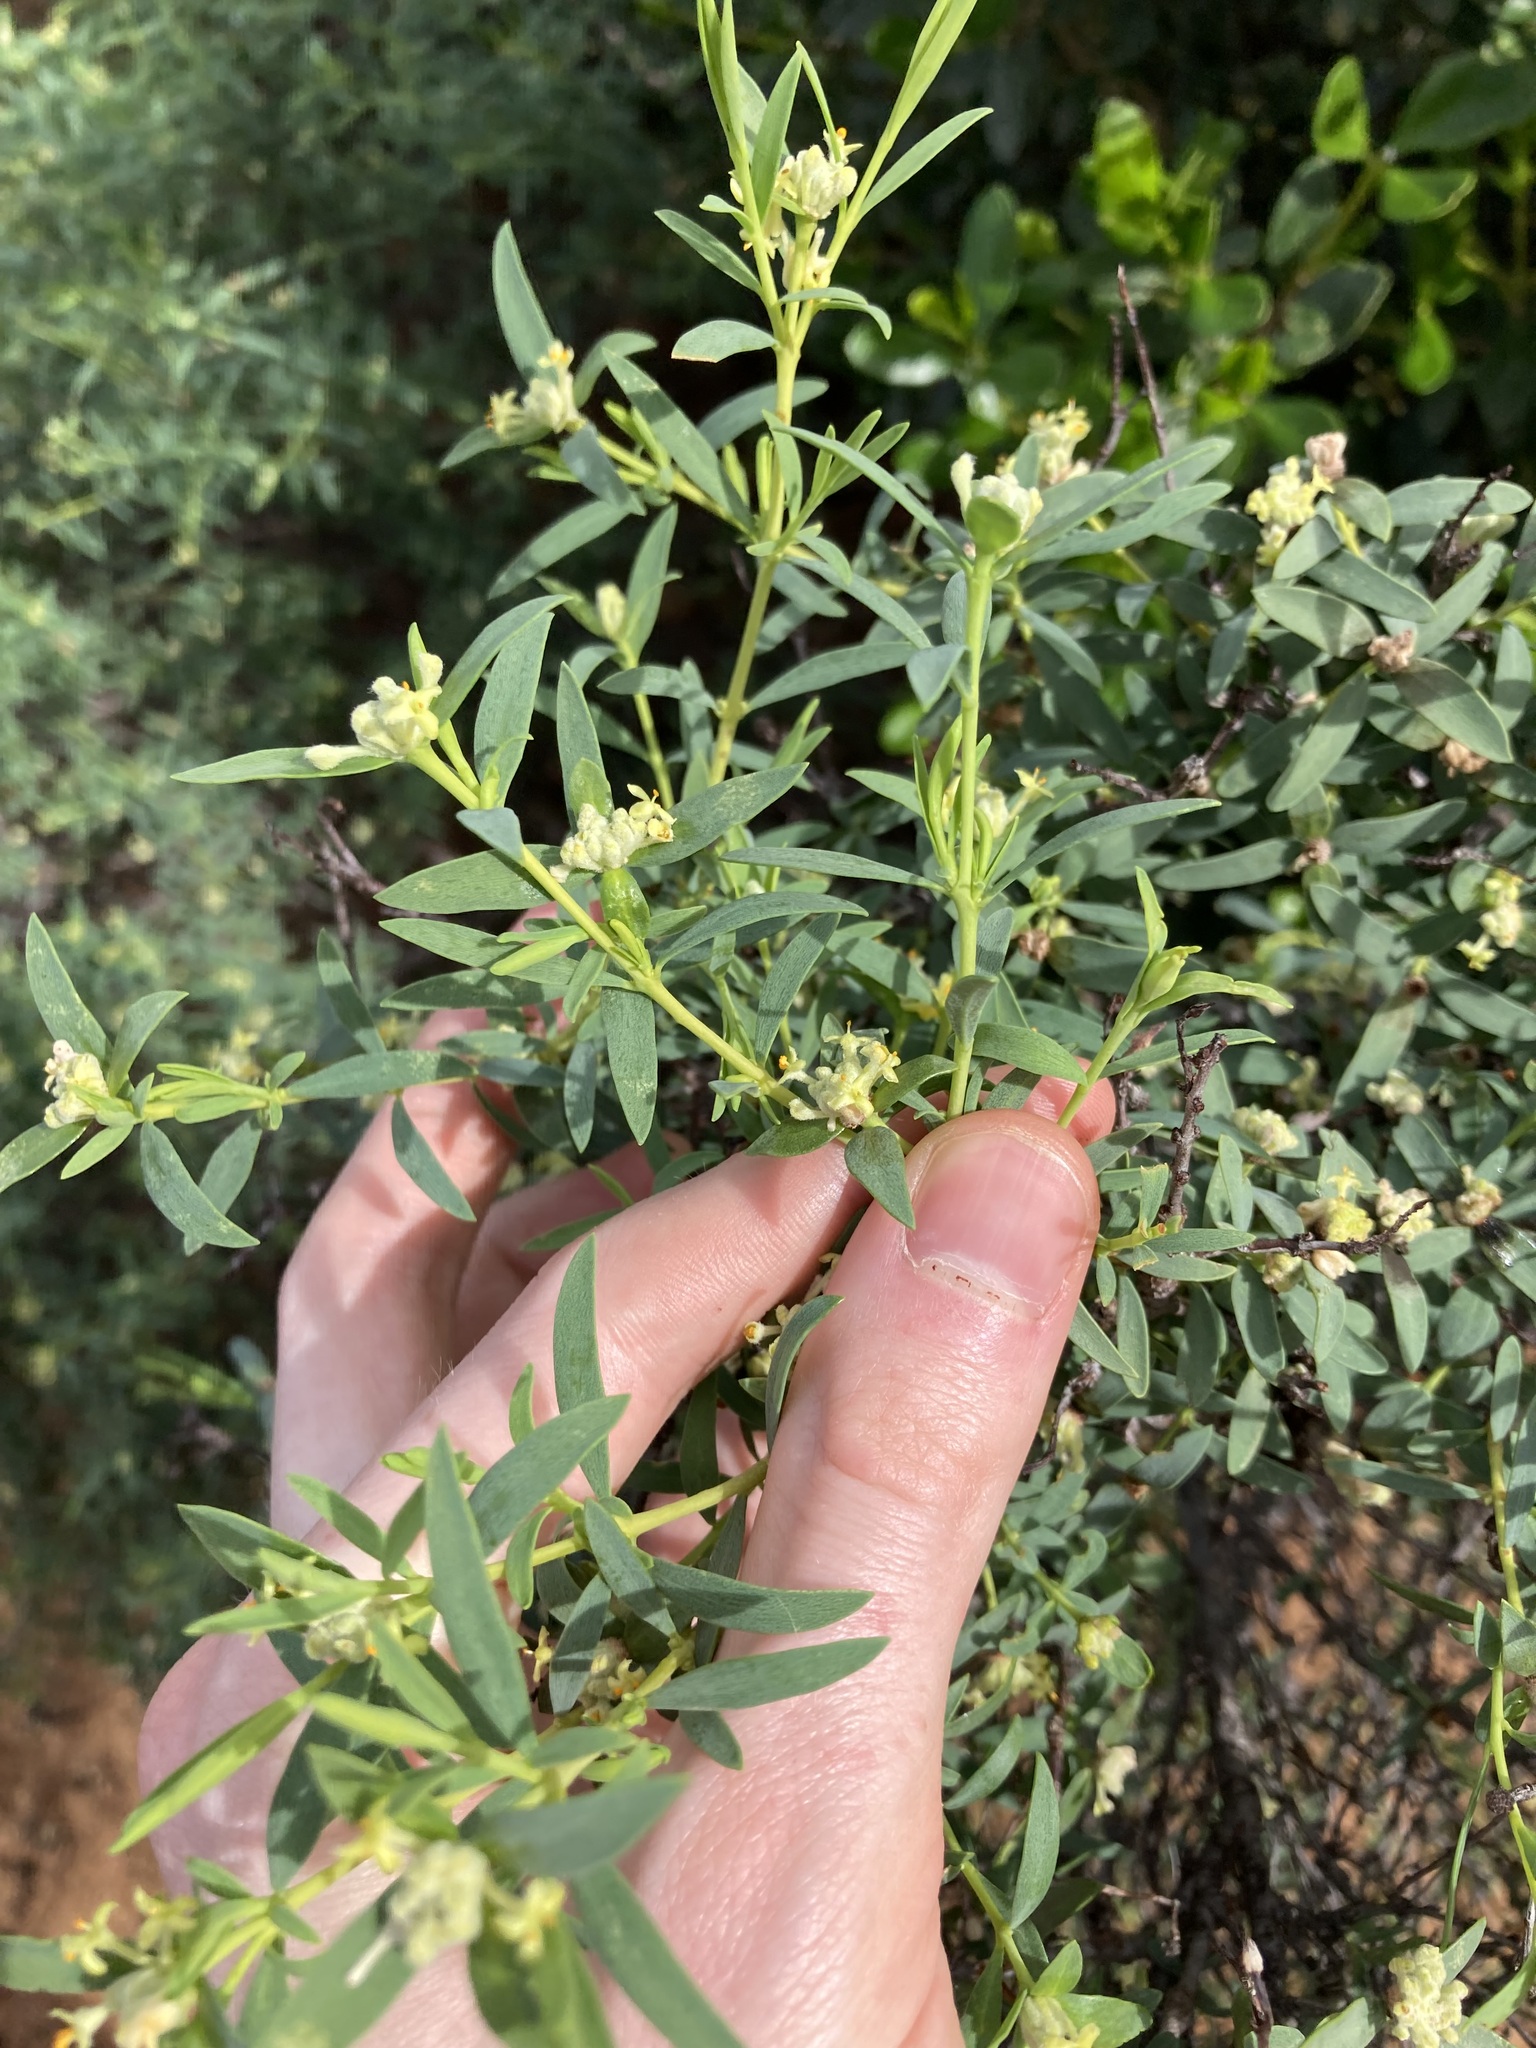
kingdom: Plantae
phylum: Tracheophyta
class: Magnoliopsida
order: Malvales
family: Thymelaeaceae
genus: Pimelea
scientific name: Pimelea microcephala
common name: Mallee riceflower
